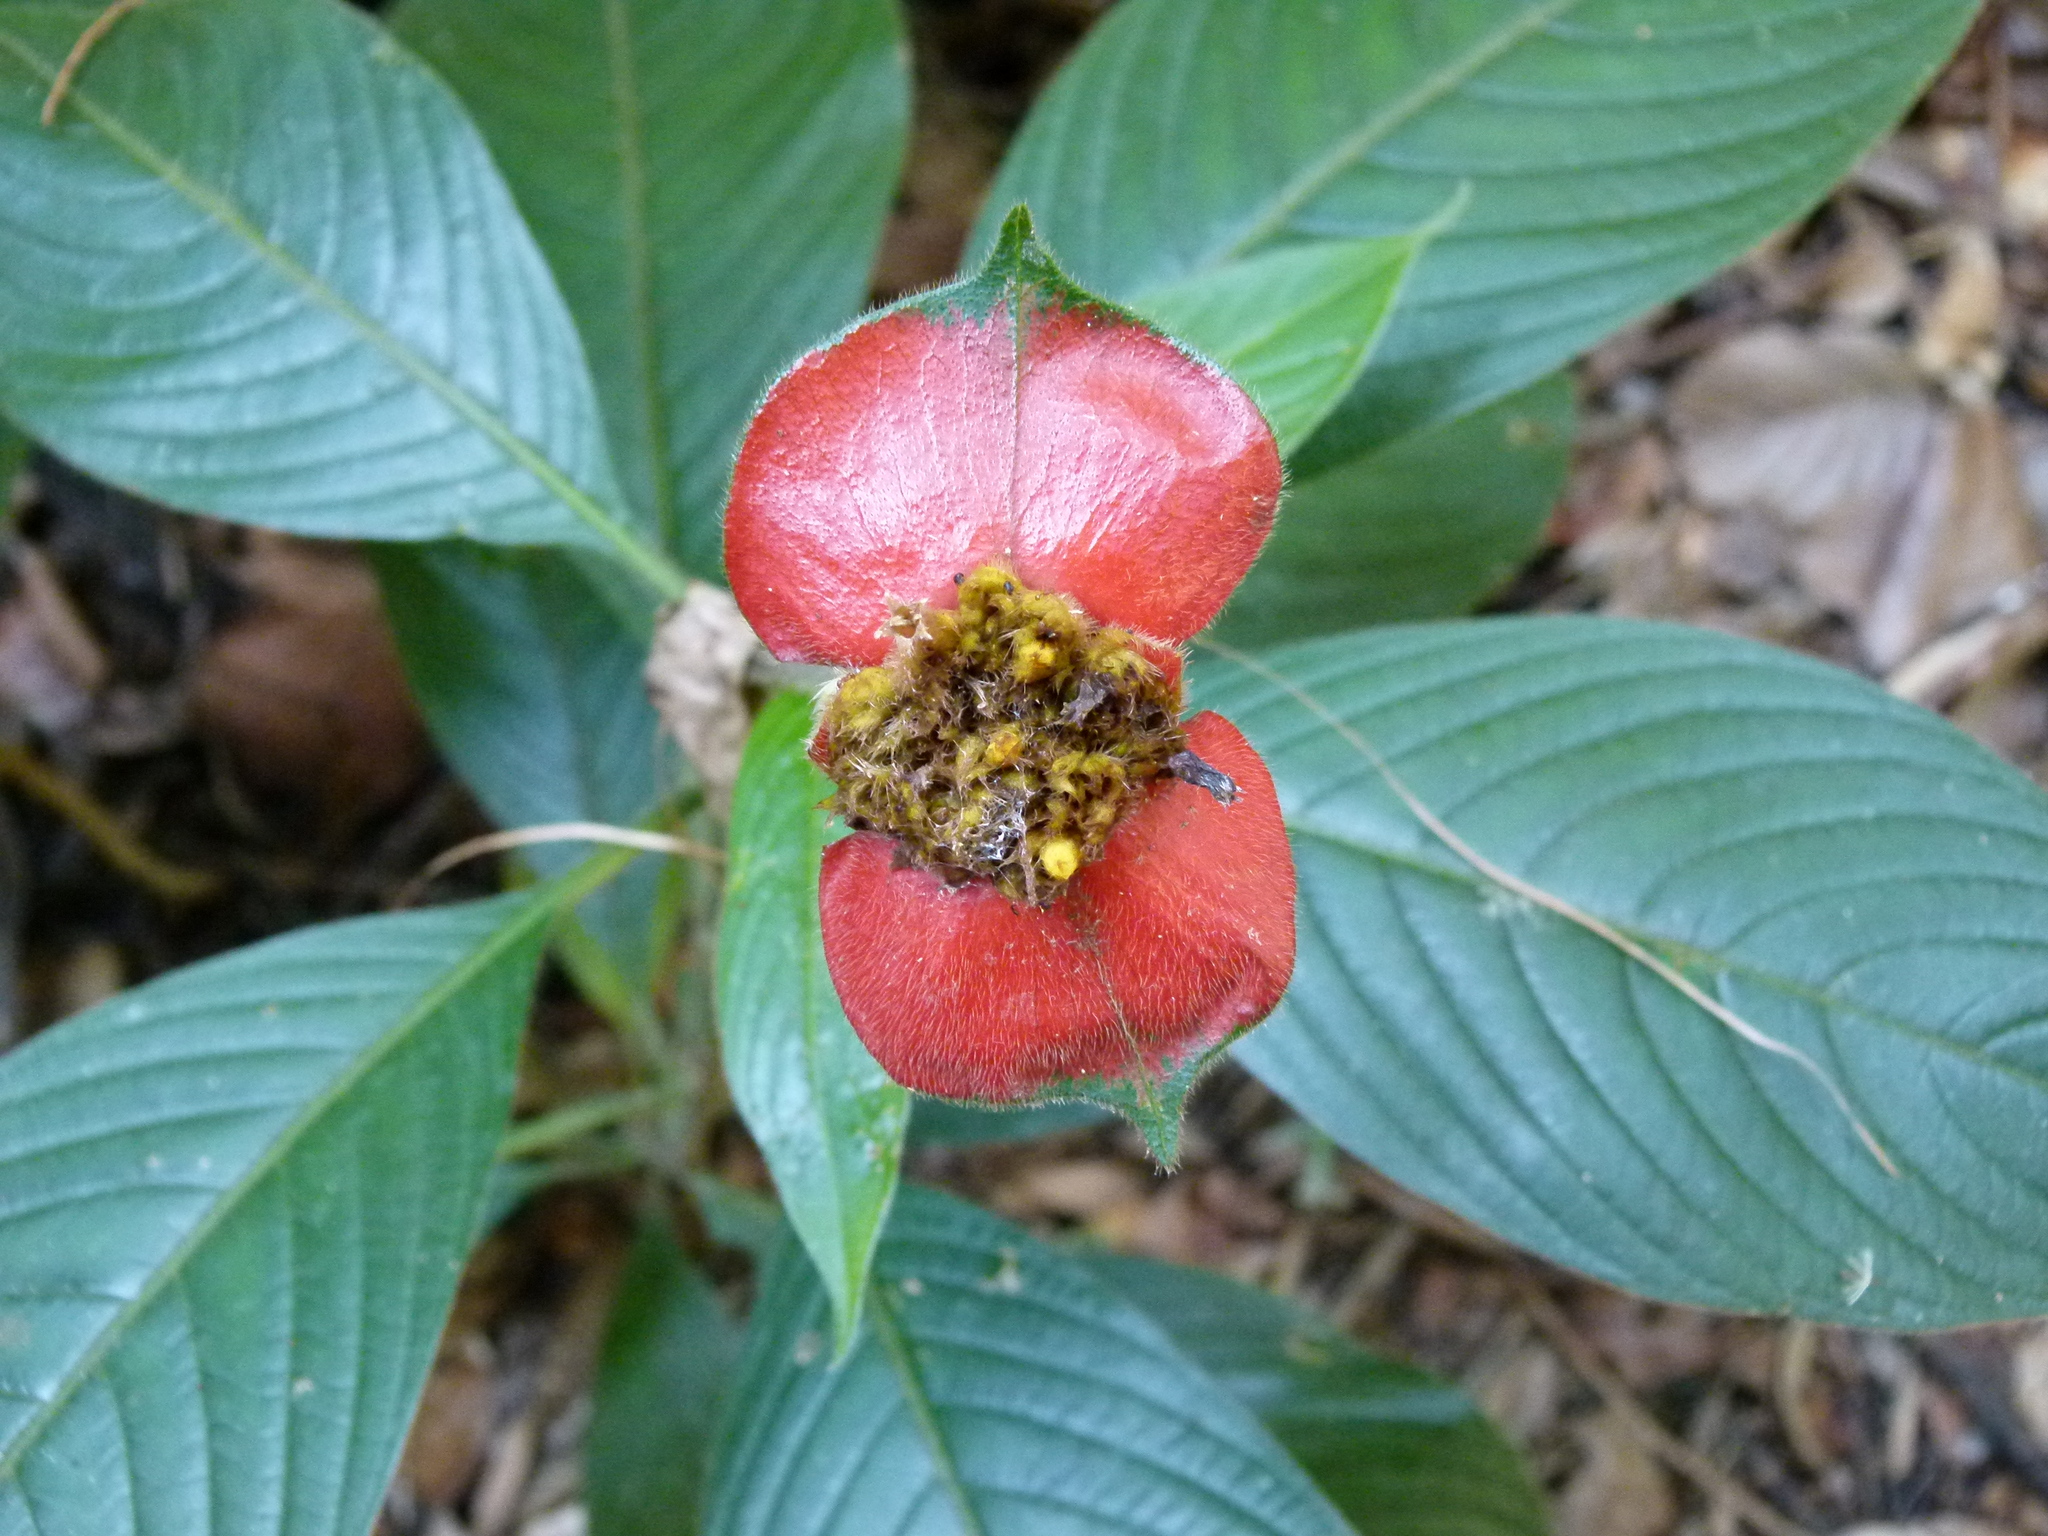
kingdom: Plantae
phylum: Tracheophyta
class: Magnoliopsida
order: Gentianales
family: Rubiaceae
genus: Palicourea
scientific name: Palicourea tomentosa
